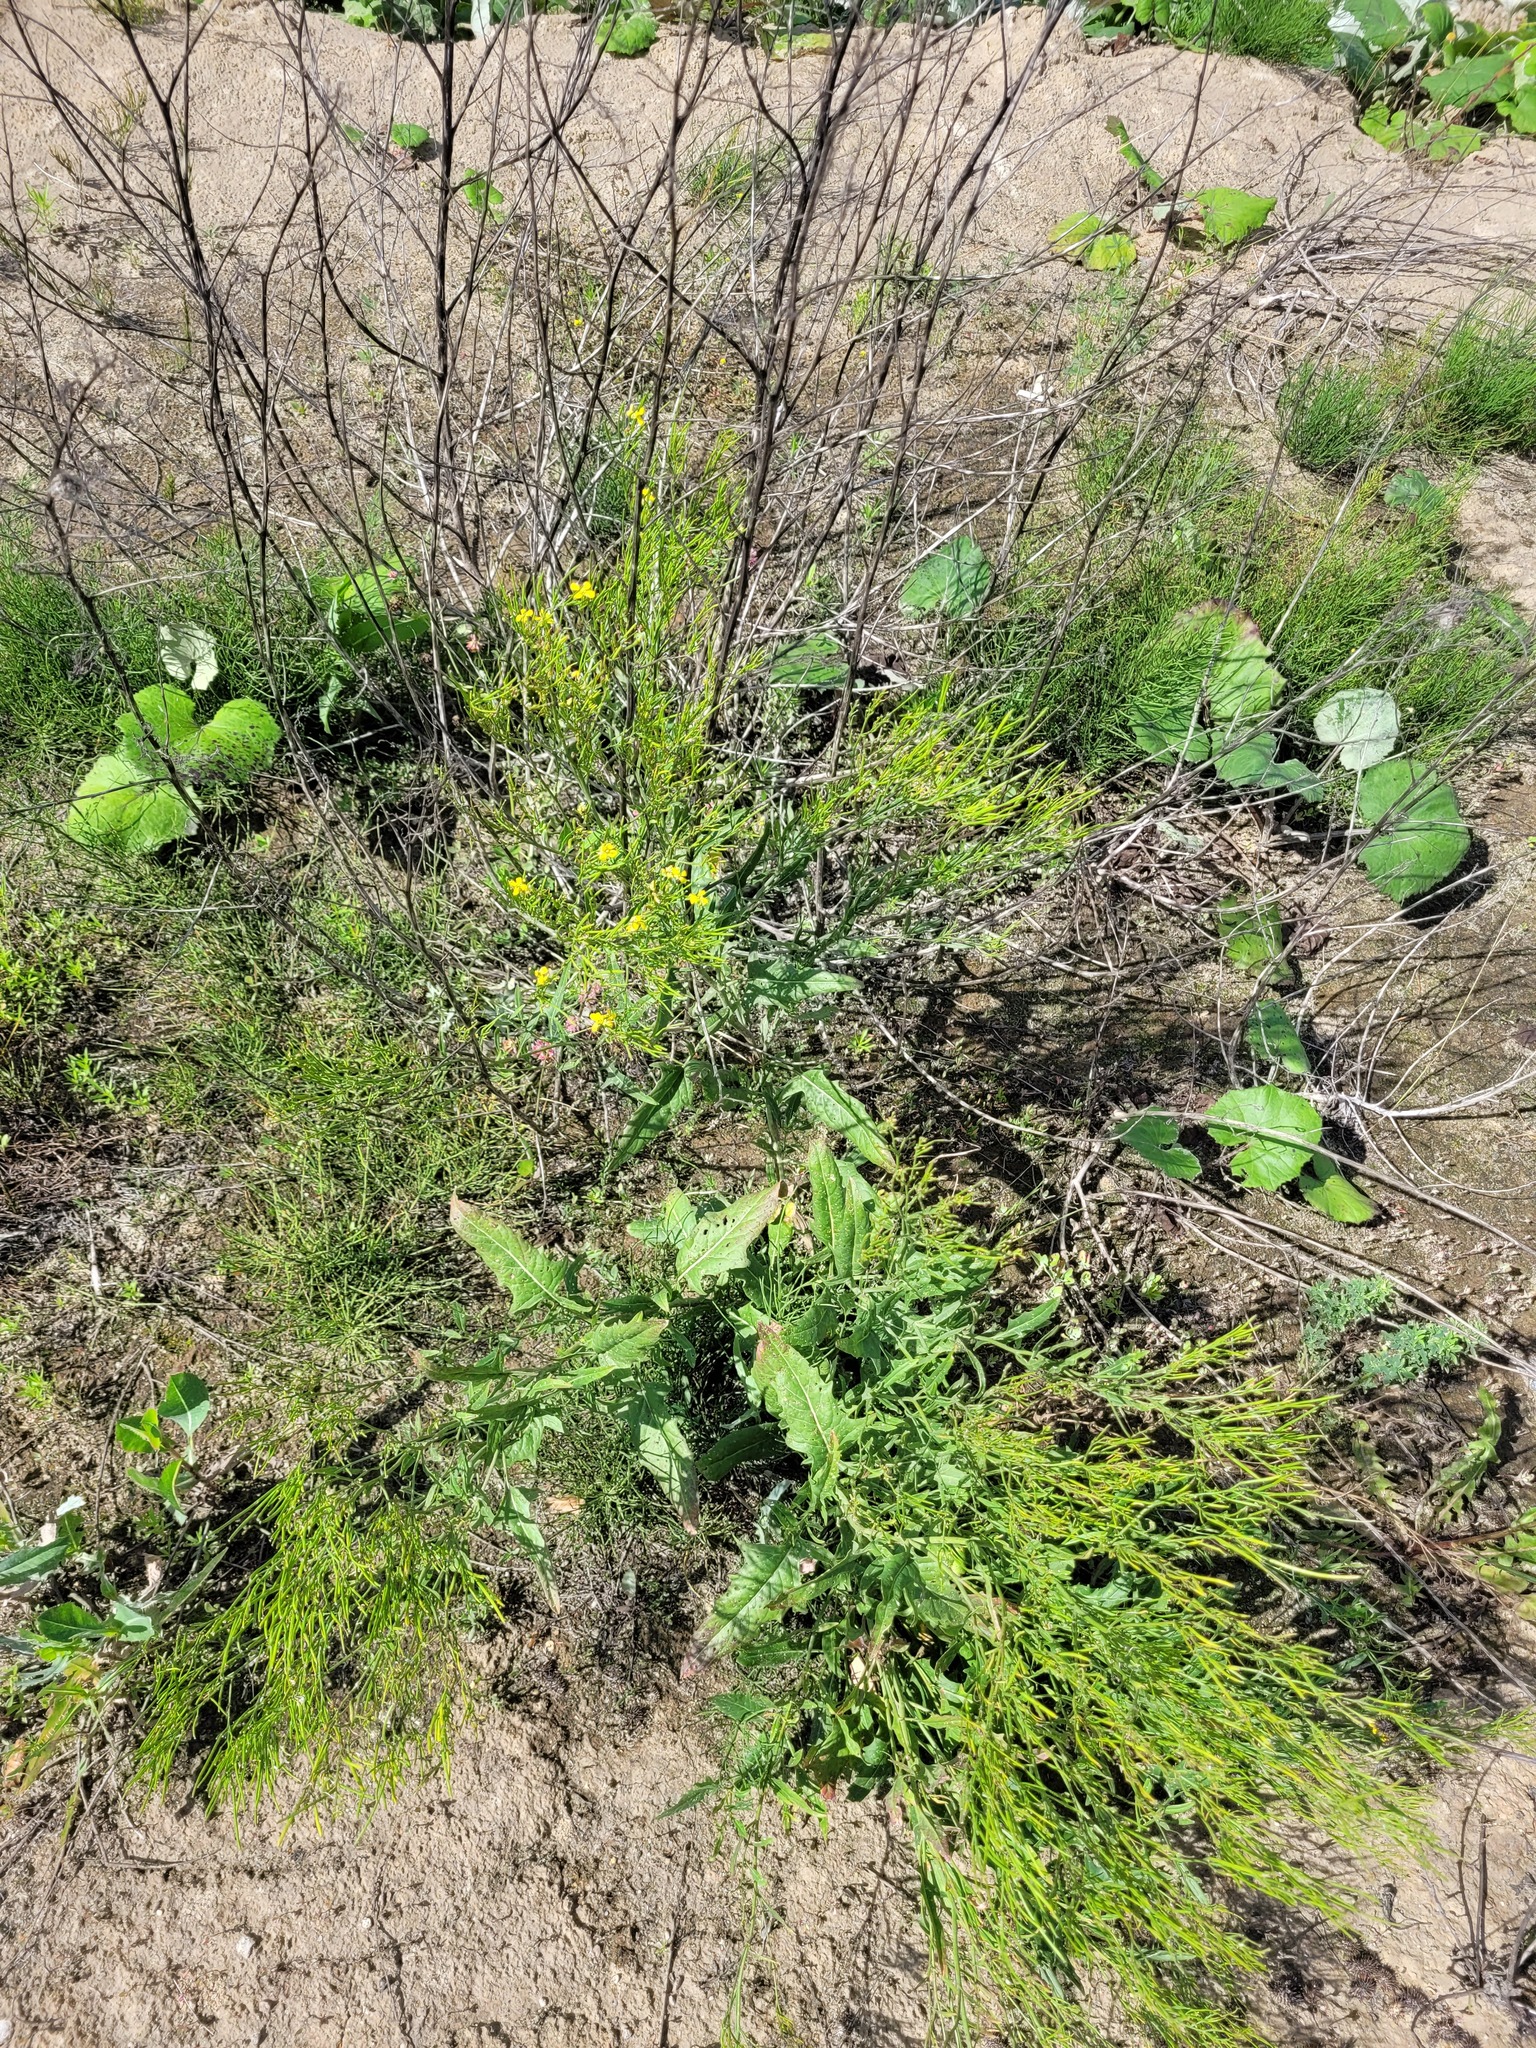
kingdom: Plantae
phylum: Tracheophyta
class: Magnoliopsida
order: Brassicales
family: Brassicaceae
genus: Sisymbrium
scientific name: Sisymbrium volgense
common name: Russian mustard
